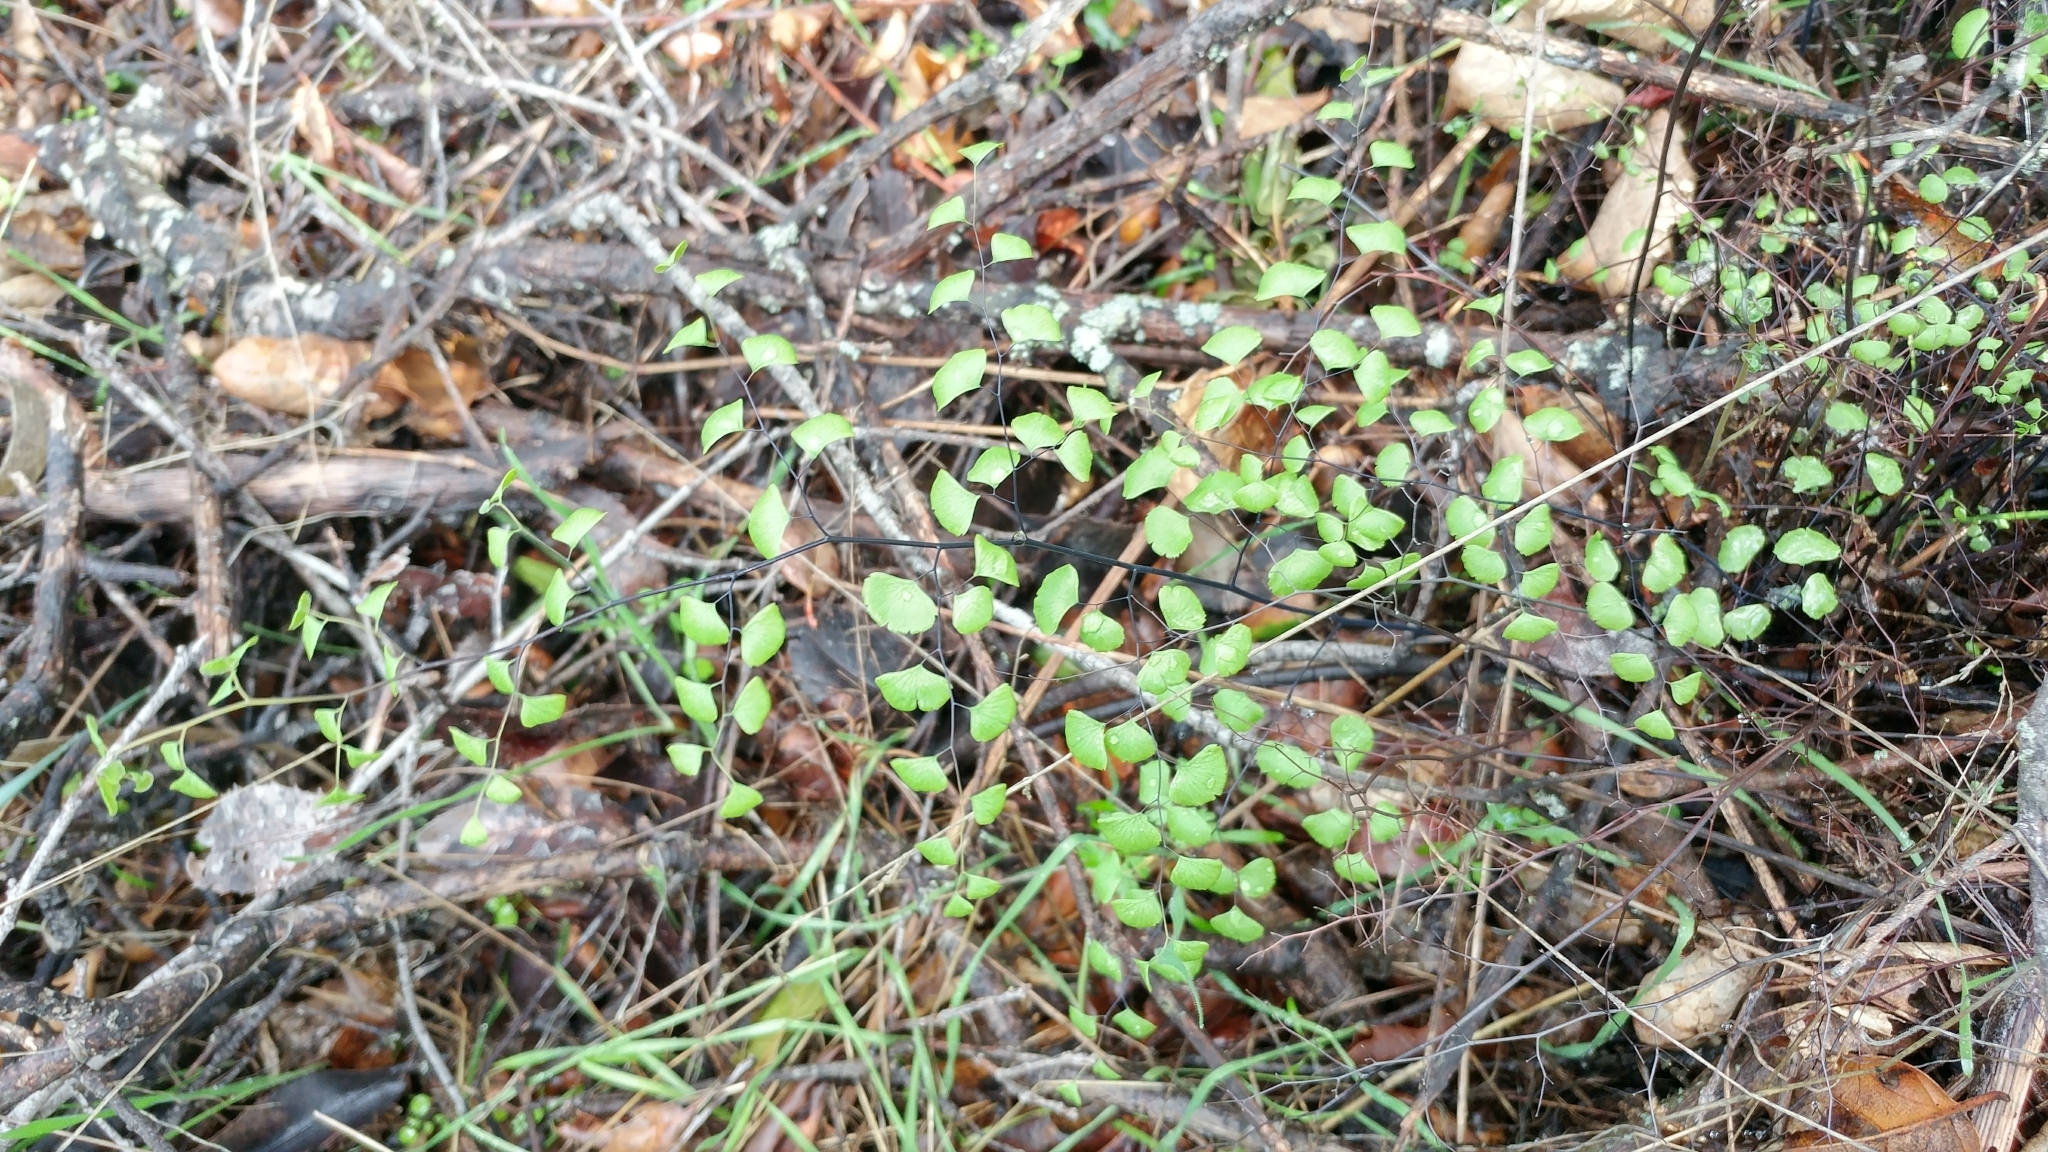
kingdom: Plantae
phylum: Tracheophyta
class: Polypodiopsida
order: Polypodiales
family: Pteridaceae
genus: Adiantum
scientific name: Adiantum jordanii
